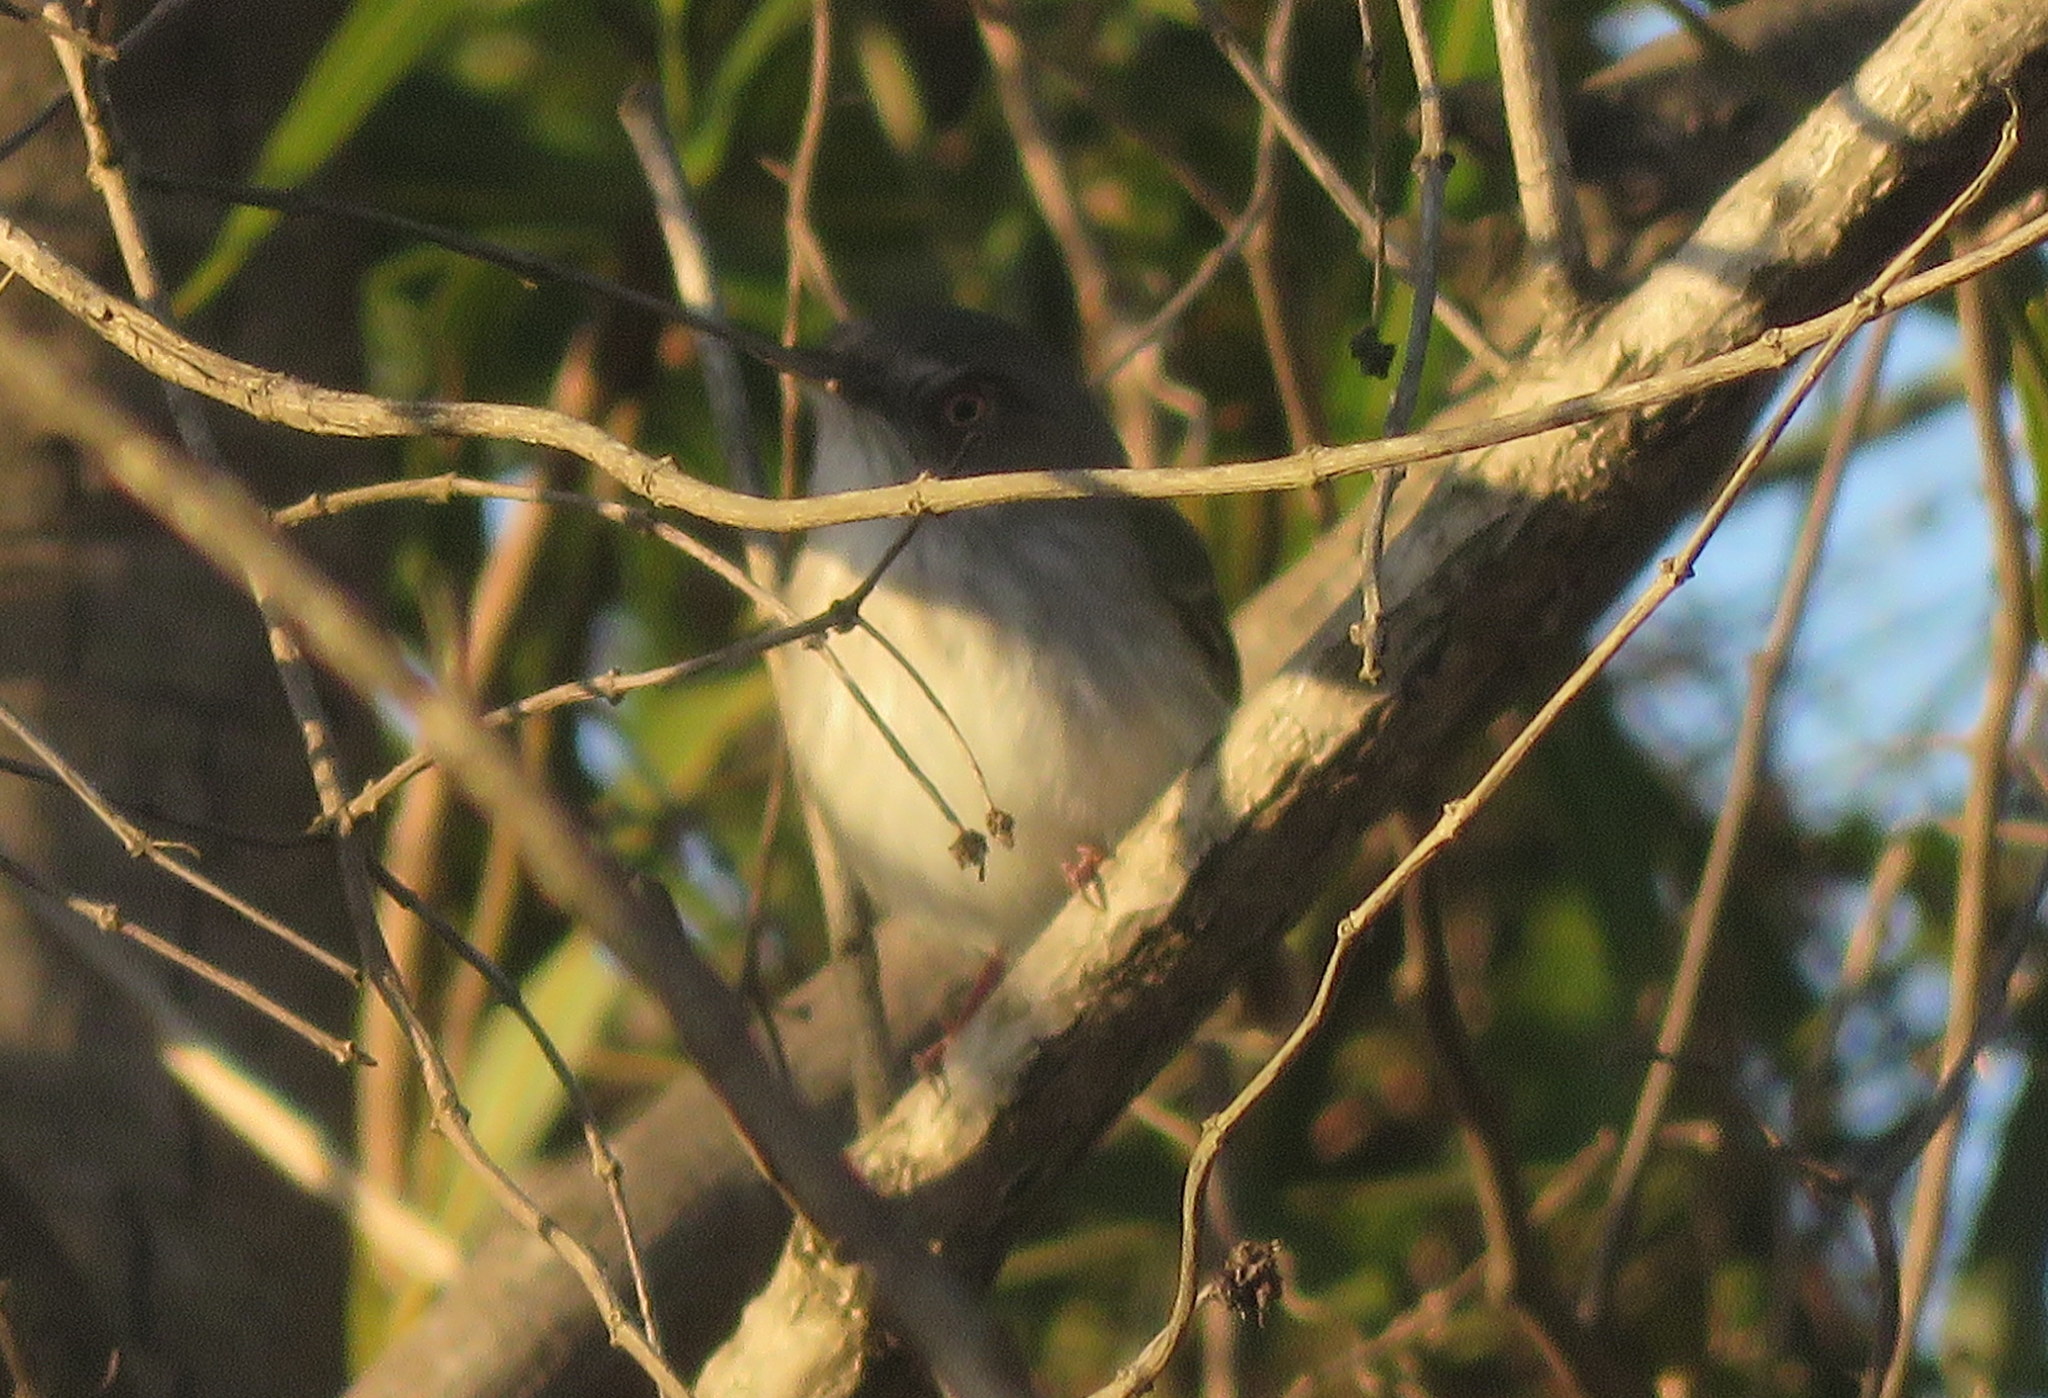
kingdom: Animalia
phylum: Chordata
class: Aves
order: Passeriformes
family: Tyrannidae
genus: Hemitriccus
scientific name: Hemitriccus margaritaceiventer
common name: Pearly-vented tody-tyrant
